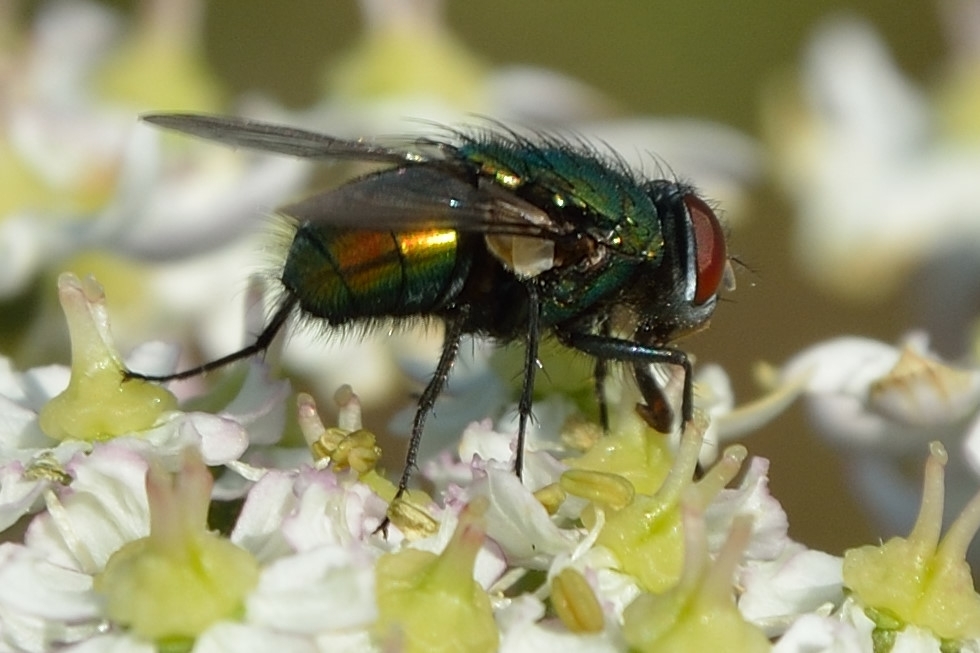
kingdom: Animalia
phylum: Arthropoda
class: Insecta
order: Diptera
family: Calliphoridae
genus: Lucilia
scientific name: Lucilia
